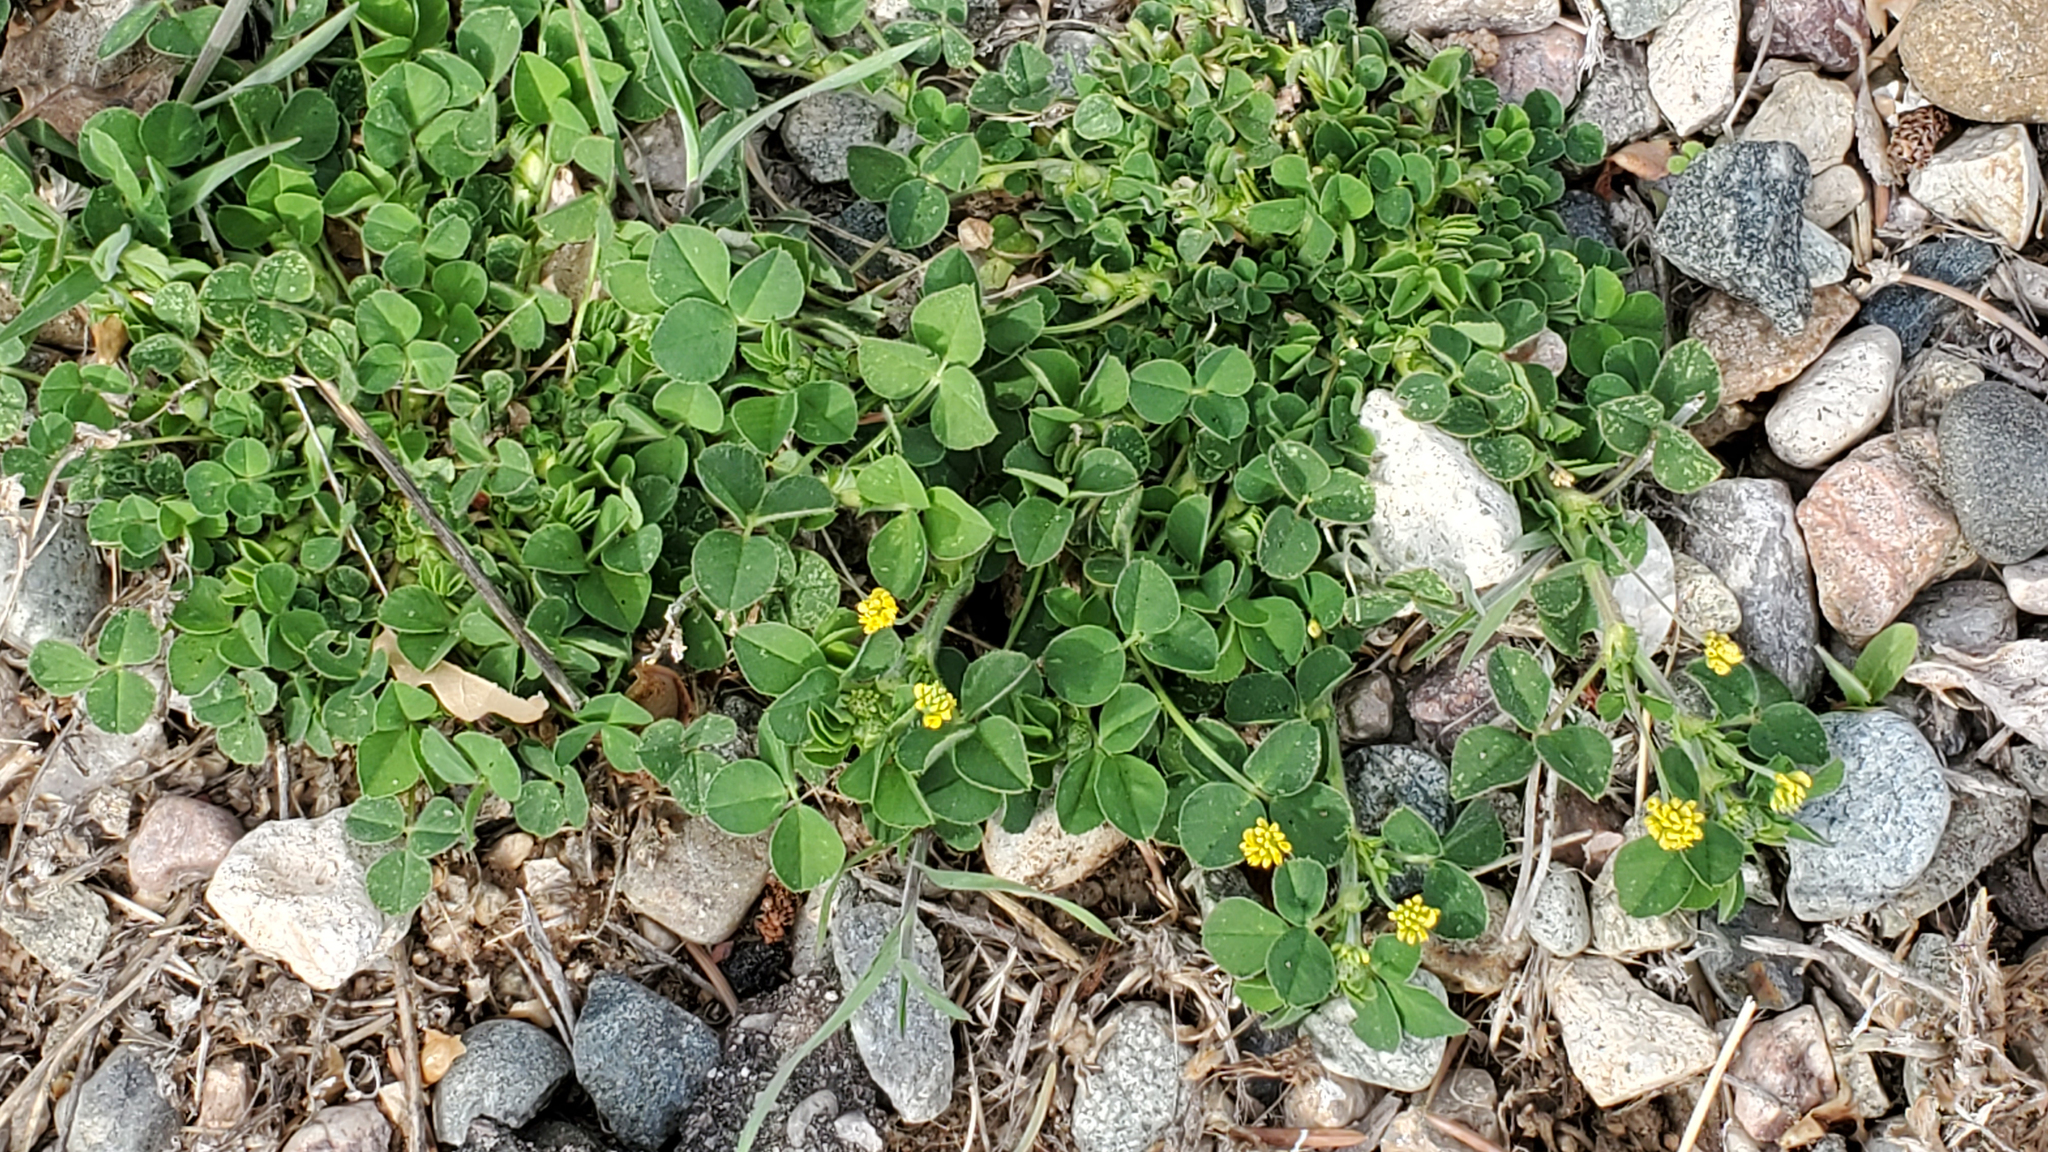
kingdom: Plantae
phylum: Tracheophyta
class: Magnoliopsida
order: Fabales
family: Fabaceae
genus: Medicago
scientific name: Medicago lupulina
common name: Black medick
